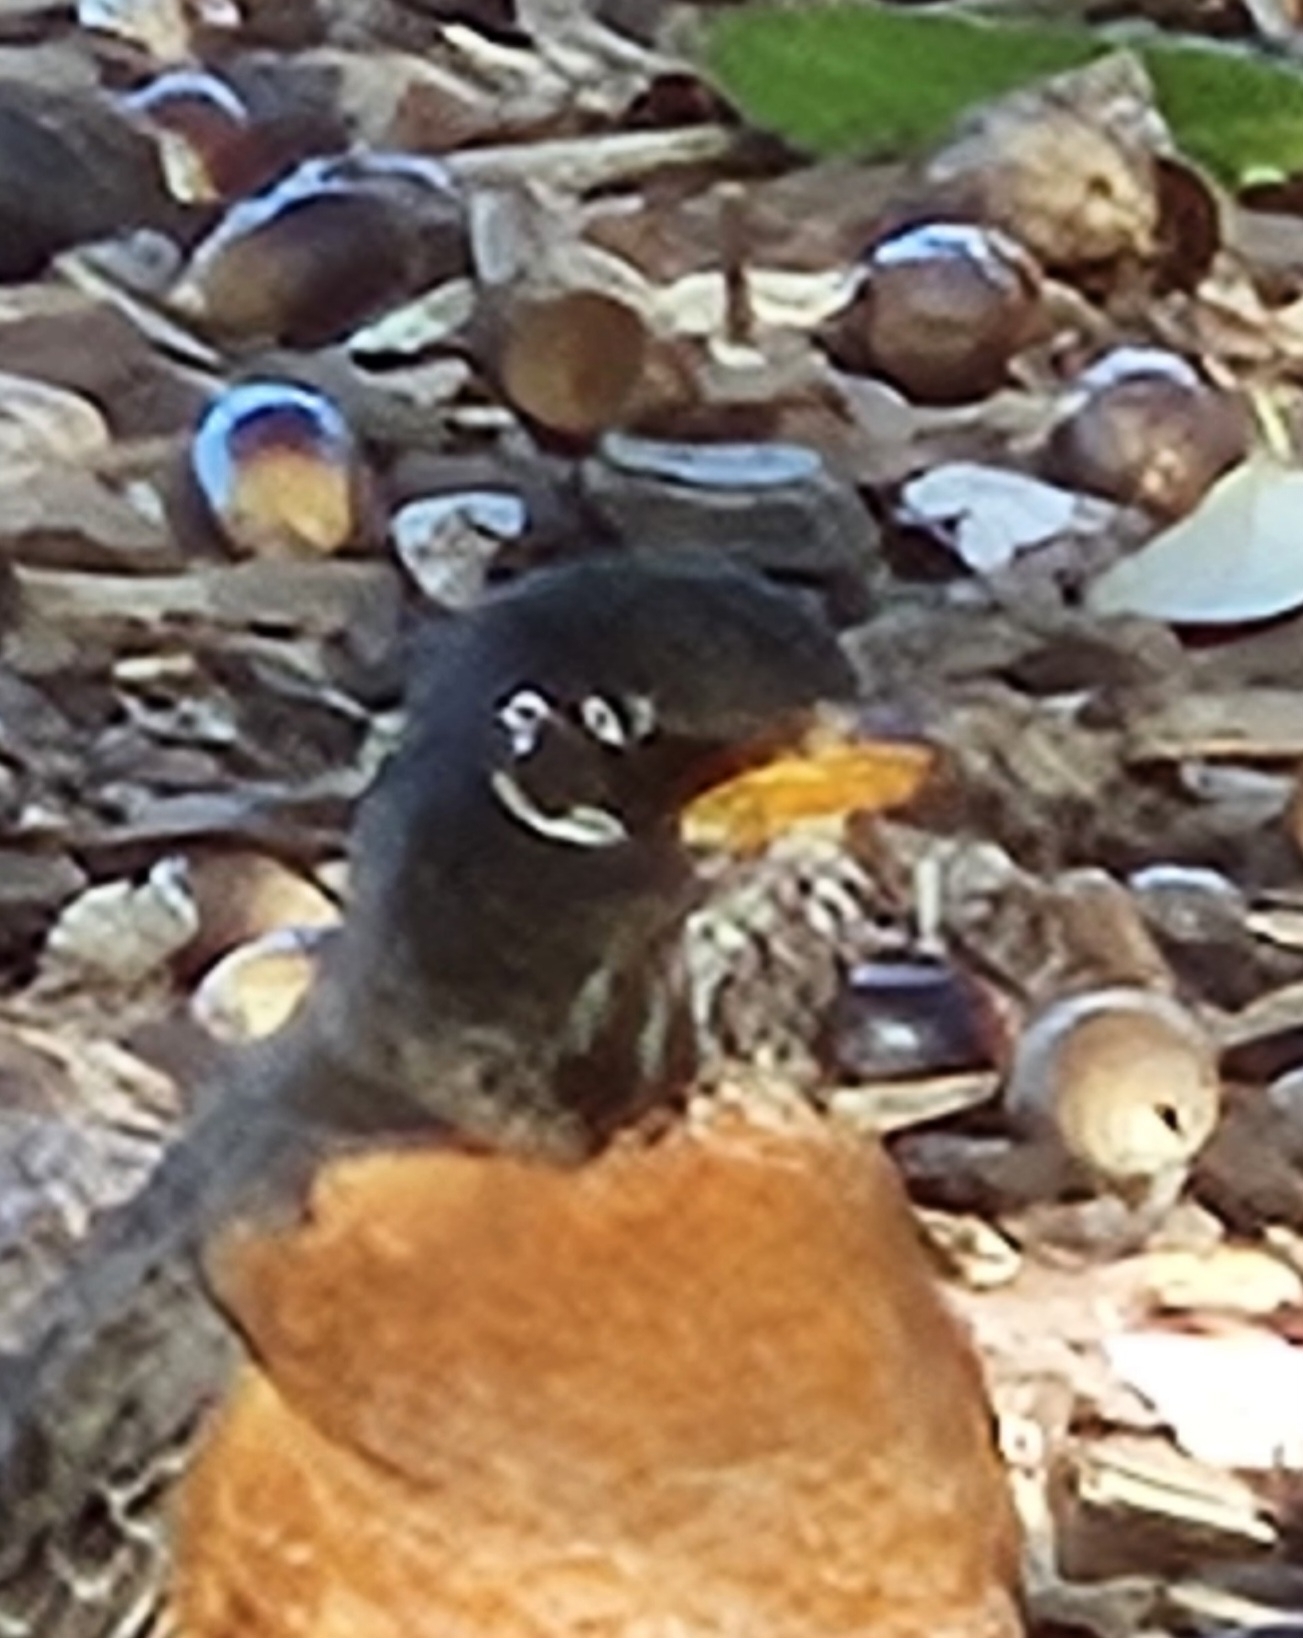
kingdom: Animalia
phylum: Chordata
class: Aves
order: Passeriformes
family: Turdidae
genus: Turdus
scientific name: Turdus migratorius
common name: American robin
